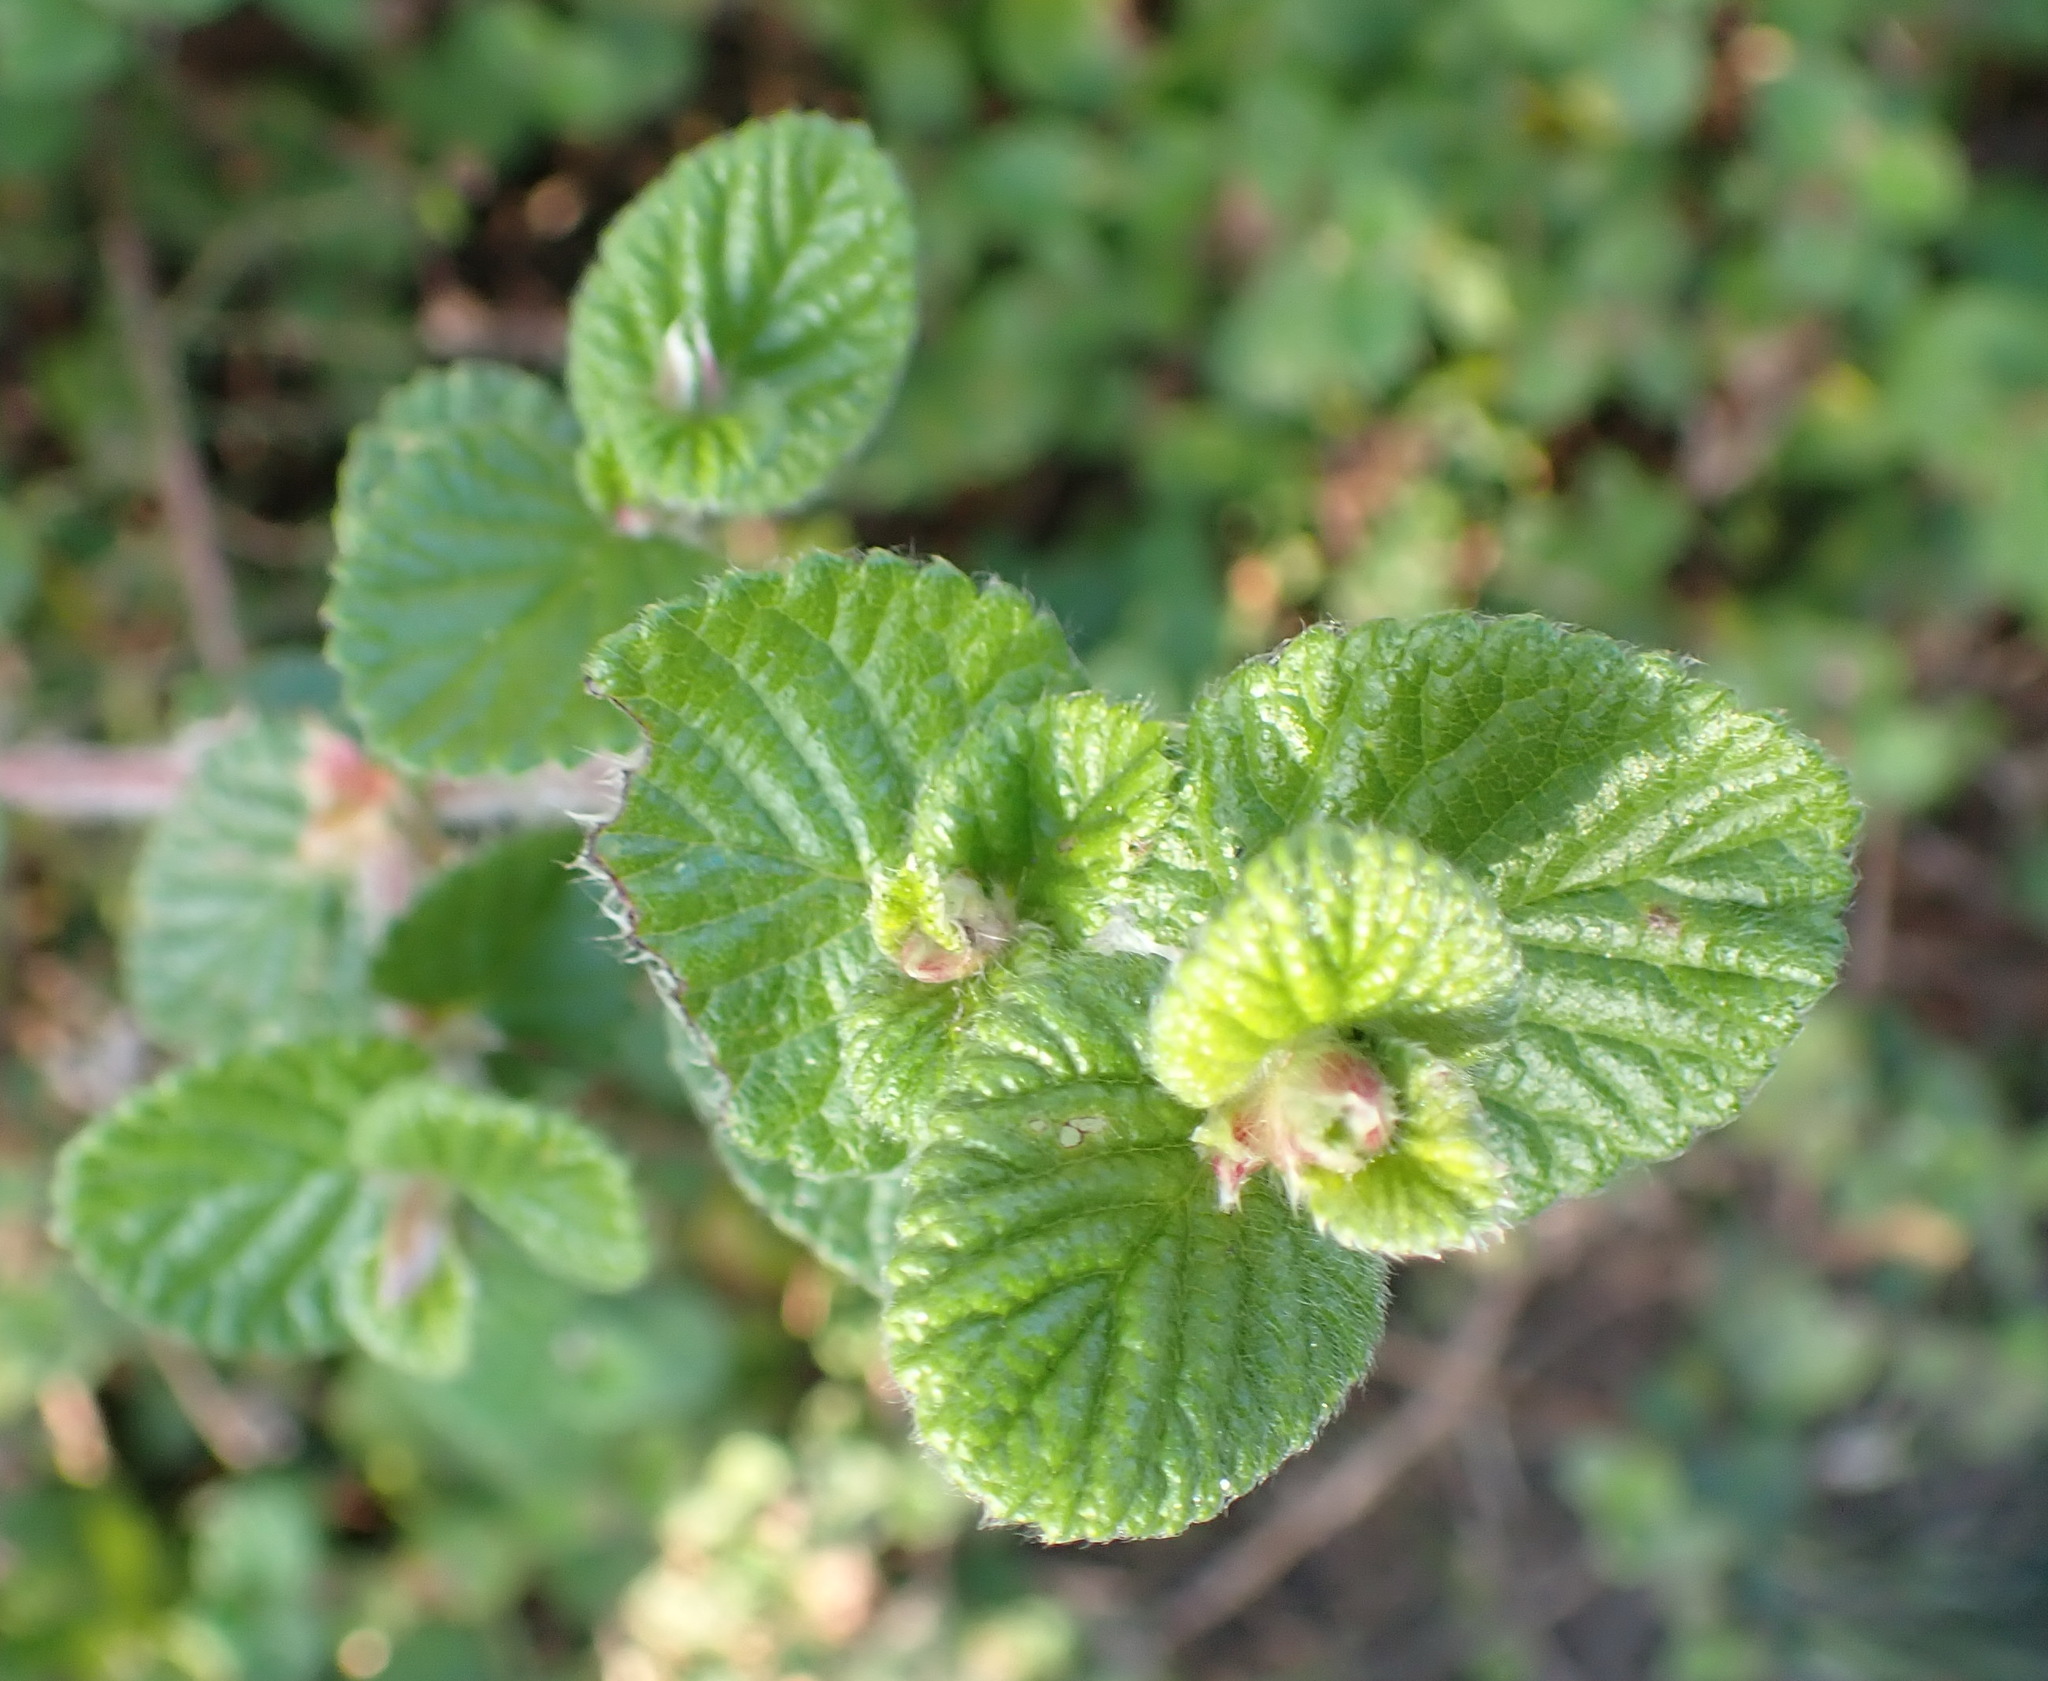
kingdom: Plantae
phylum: Tracheophyta
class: Magnoliopsida
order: Rosales
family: Rosaceae
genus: Cliffortia
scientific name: Cliffortia odorata
